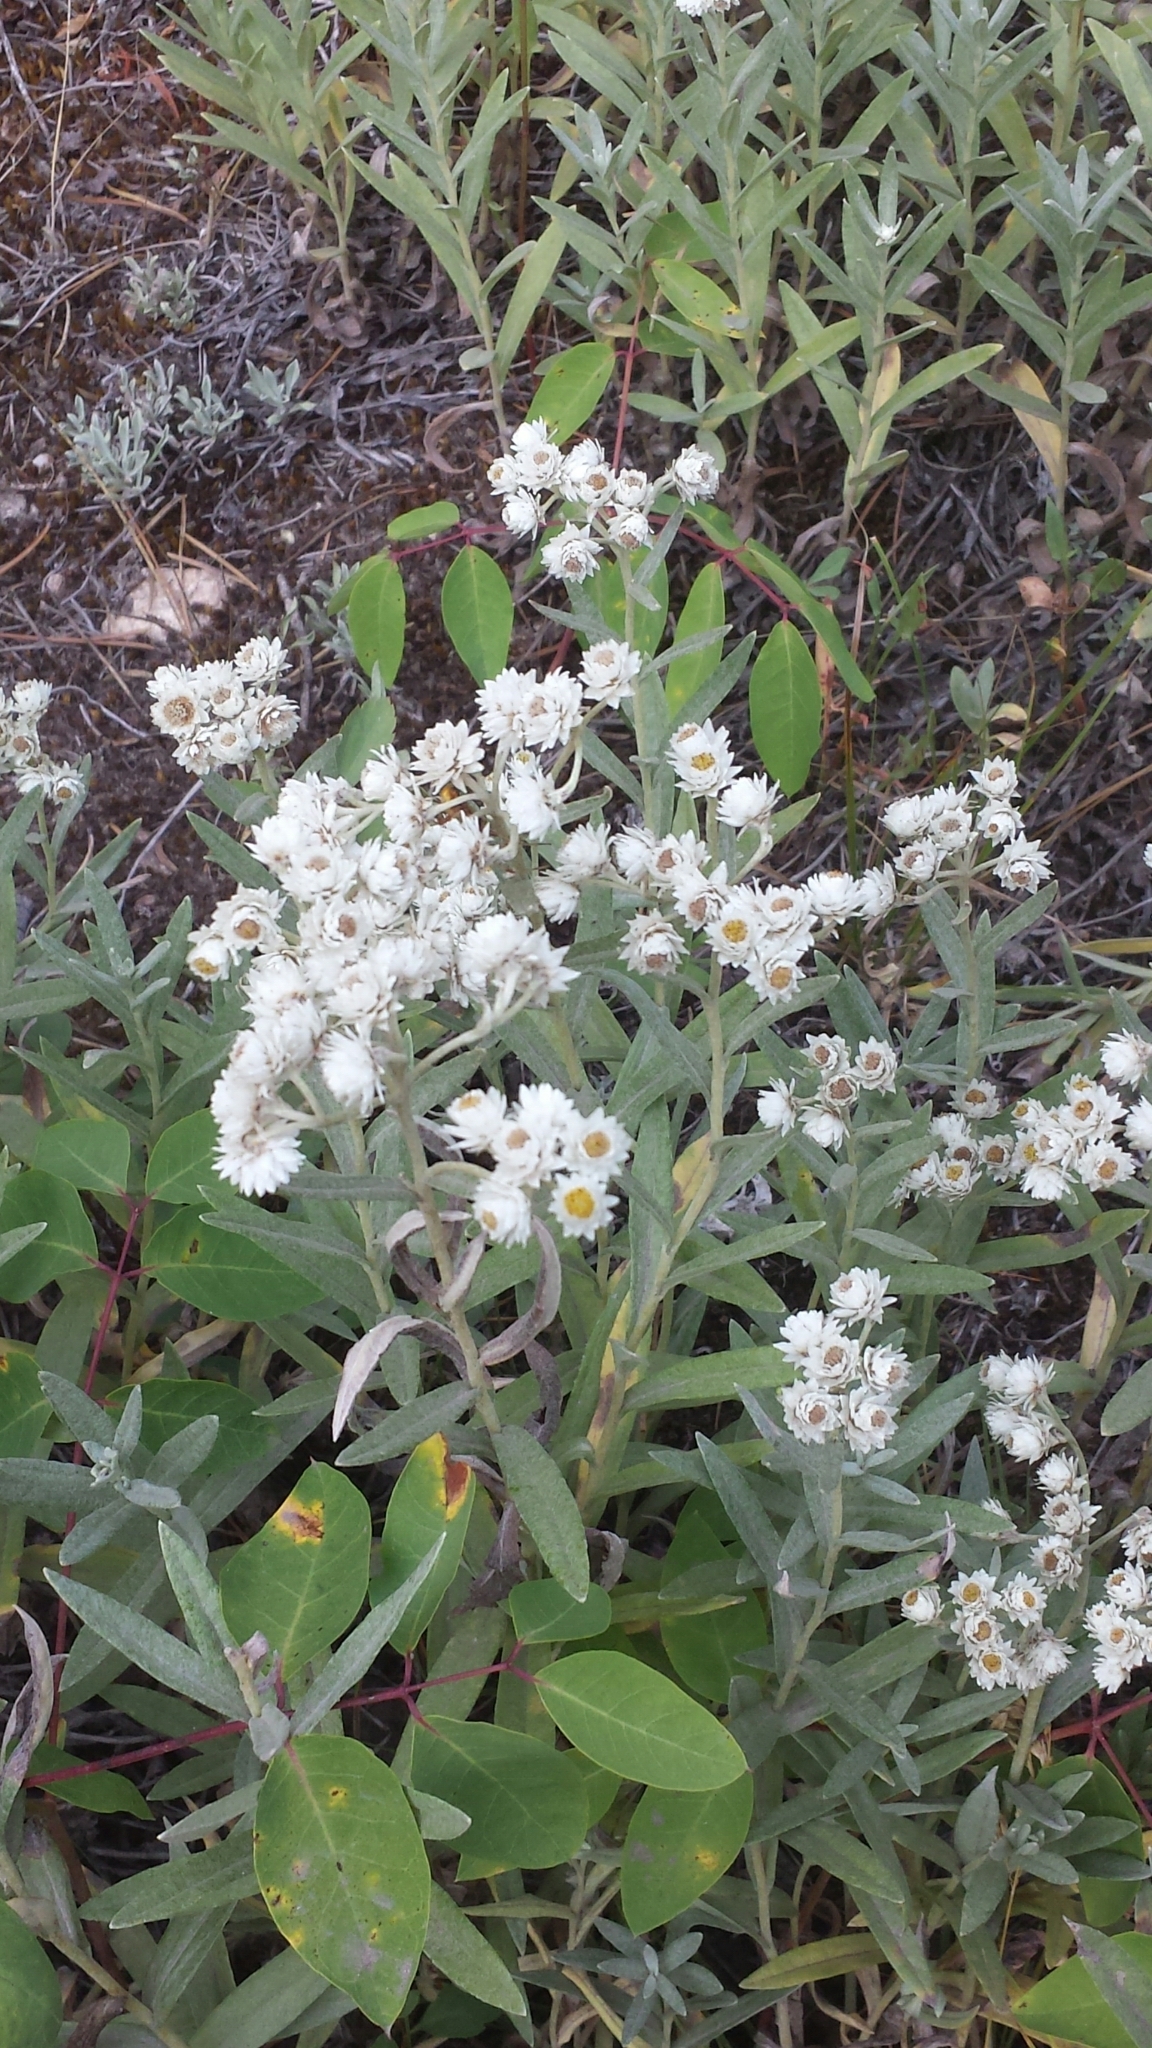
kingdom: Plantae
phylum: Tracheophyta
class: Magnoliopsida
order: Asterales
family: Asteraceae
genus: Anaphalis
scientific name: Anaphalis margaritacea
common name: Pearly everlasting
